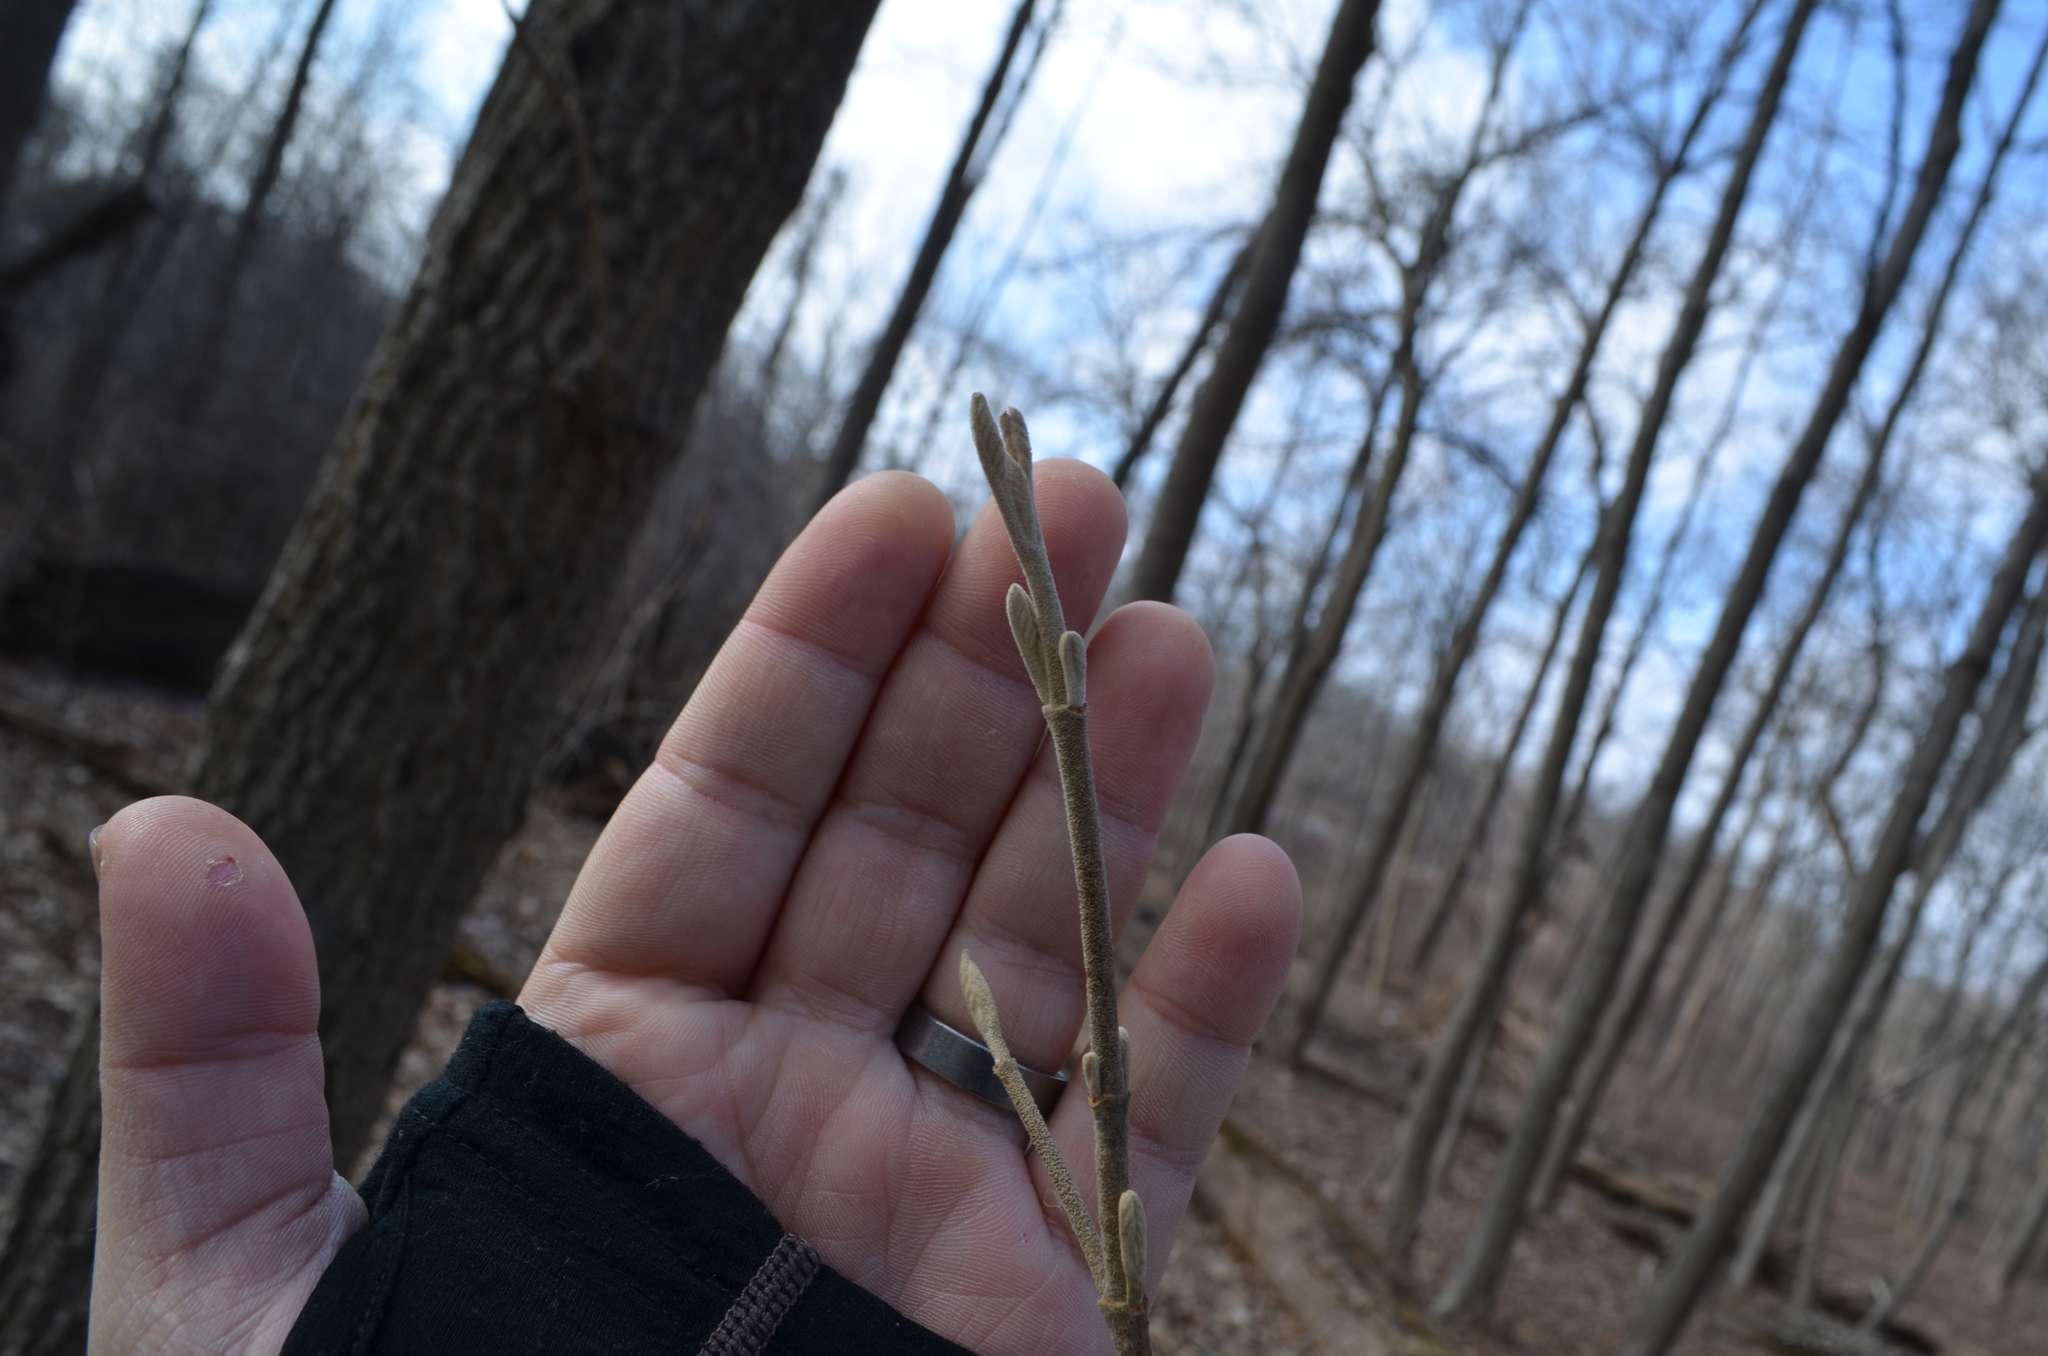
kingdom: Plantae
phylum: Tracheophyta
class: Magnoliopsida
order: Dipsacales
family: Viburnaceae
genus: Viburnum
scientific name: Viburnum lantana
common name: Wayfaring tree
